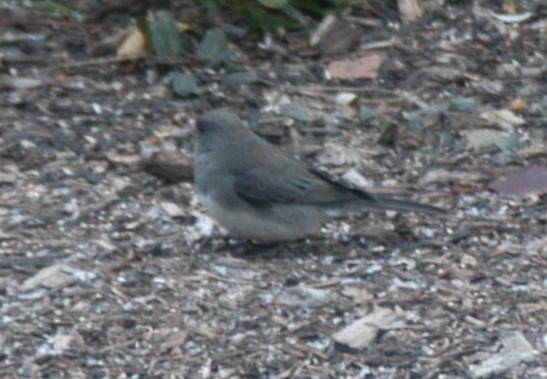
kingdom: Animalia
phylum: Chordata
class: Aves
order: Passeriformes
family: Passerellidae
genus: Junco
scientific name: Junco hyemalis
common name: Dark-eyed junco
